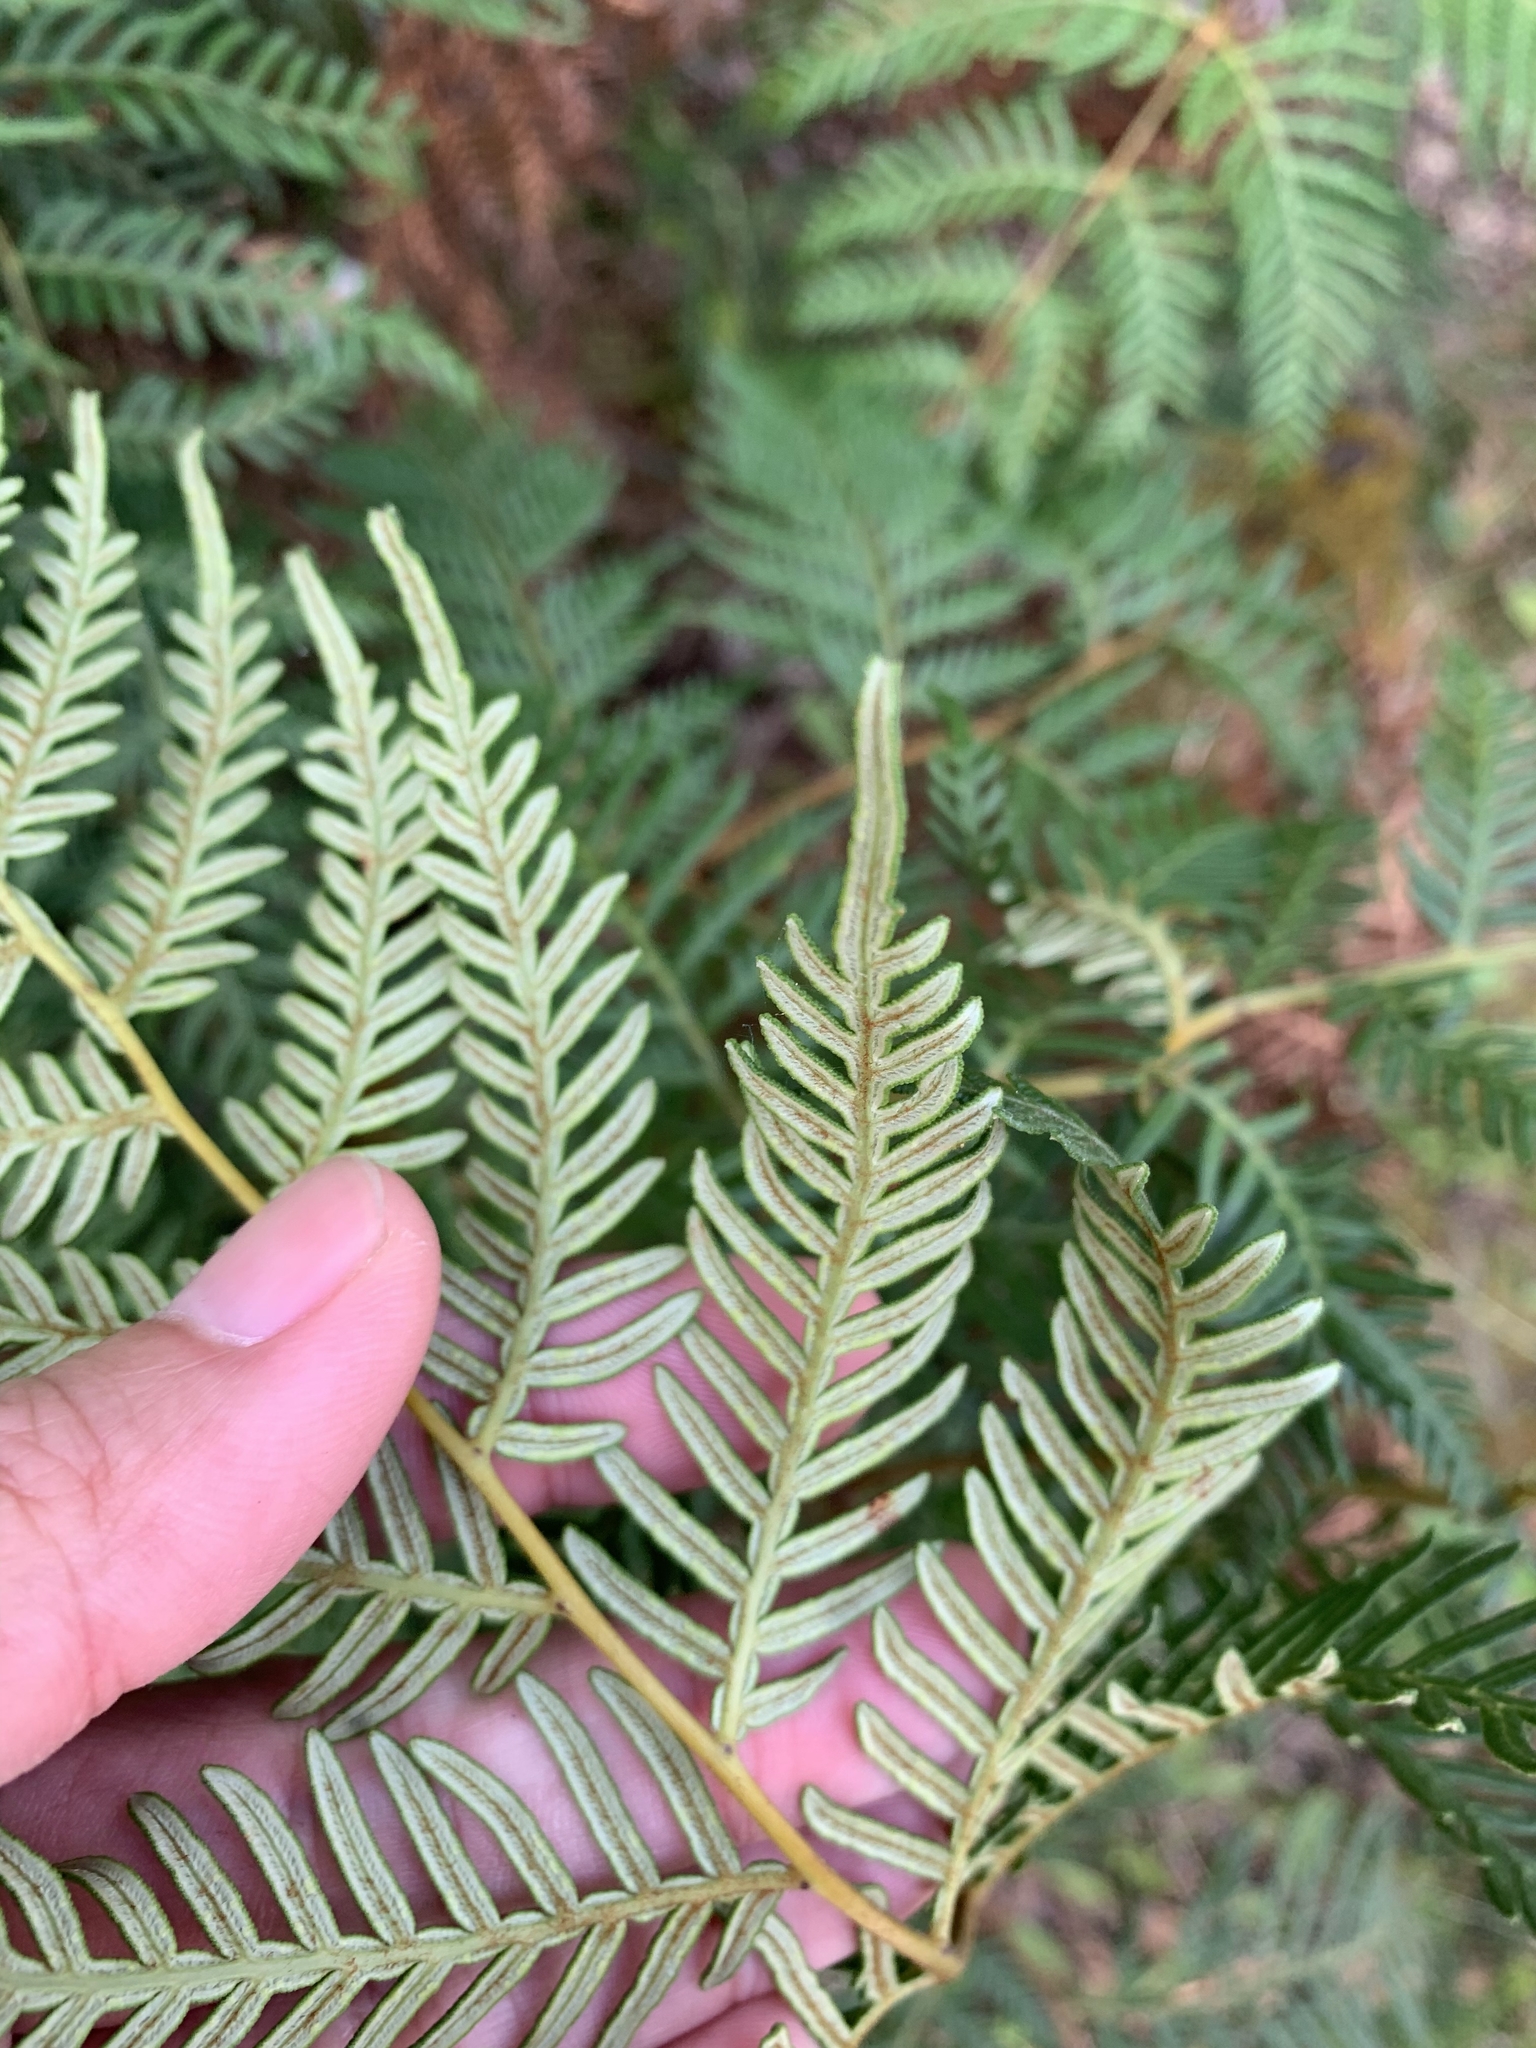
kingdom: Plantae
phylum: Tracheophyta
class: Polypodiopsida
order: Polypodiales
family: Dennstaedtiaceae
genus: Pteridium
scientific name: Pteridium esculentum
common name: Bracken fern
